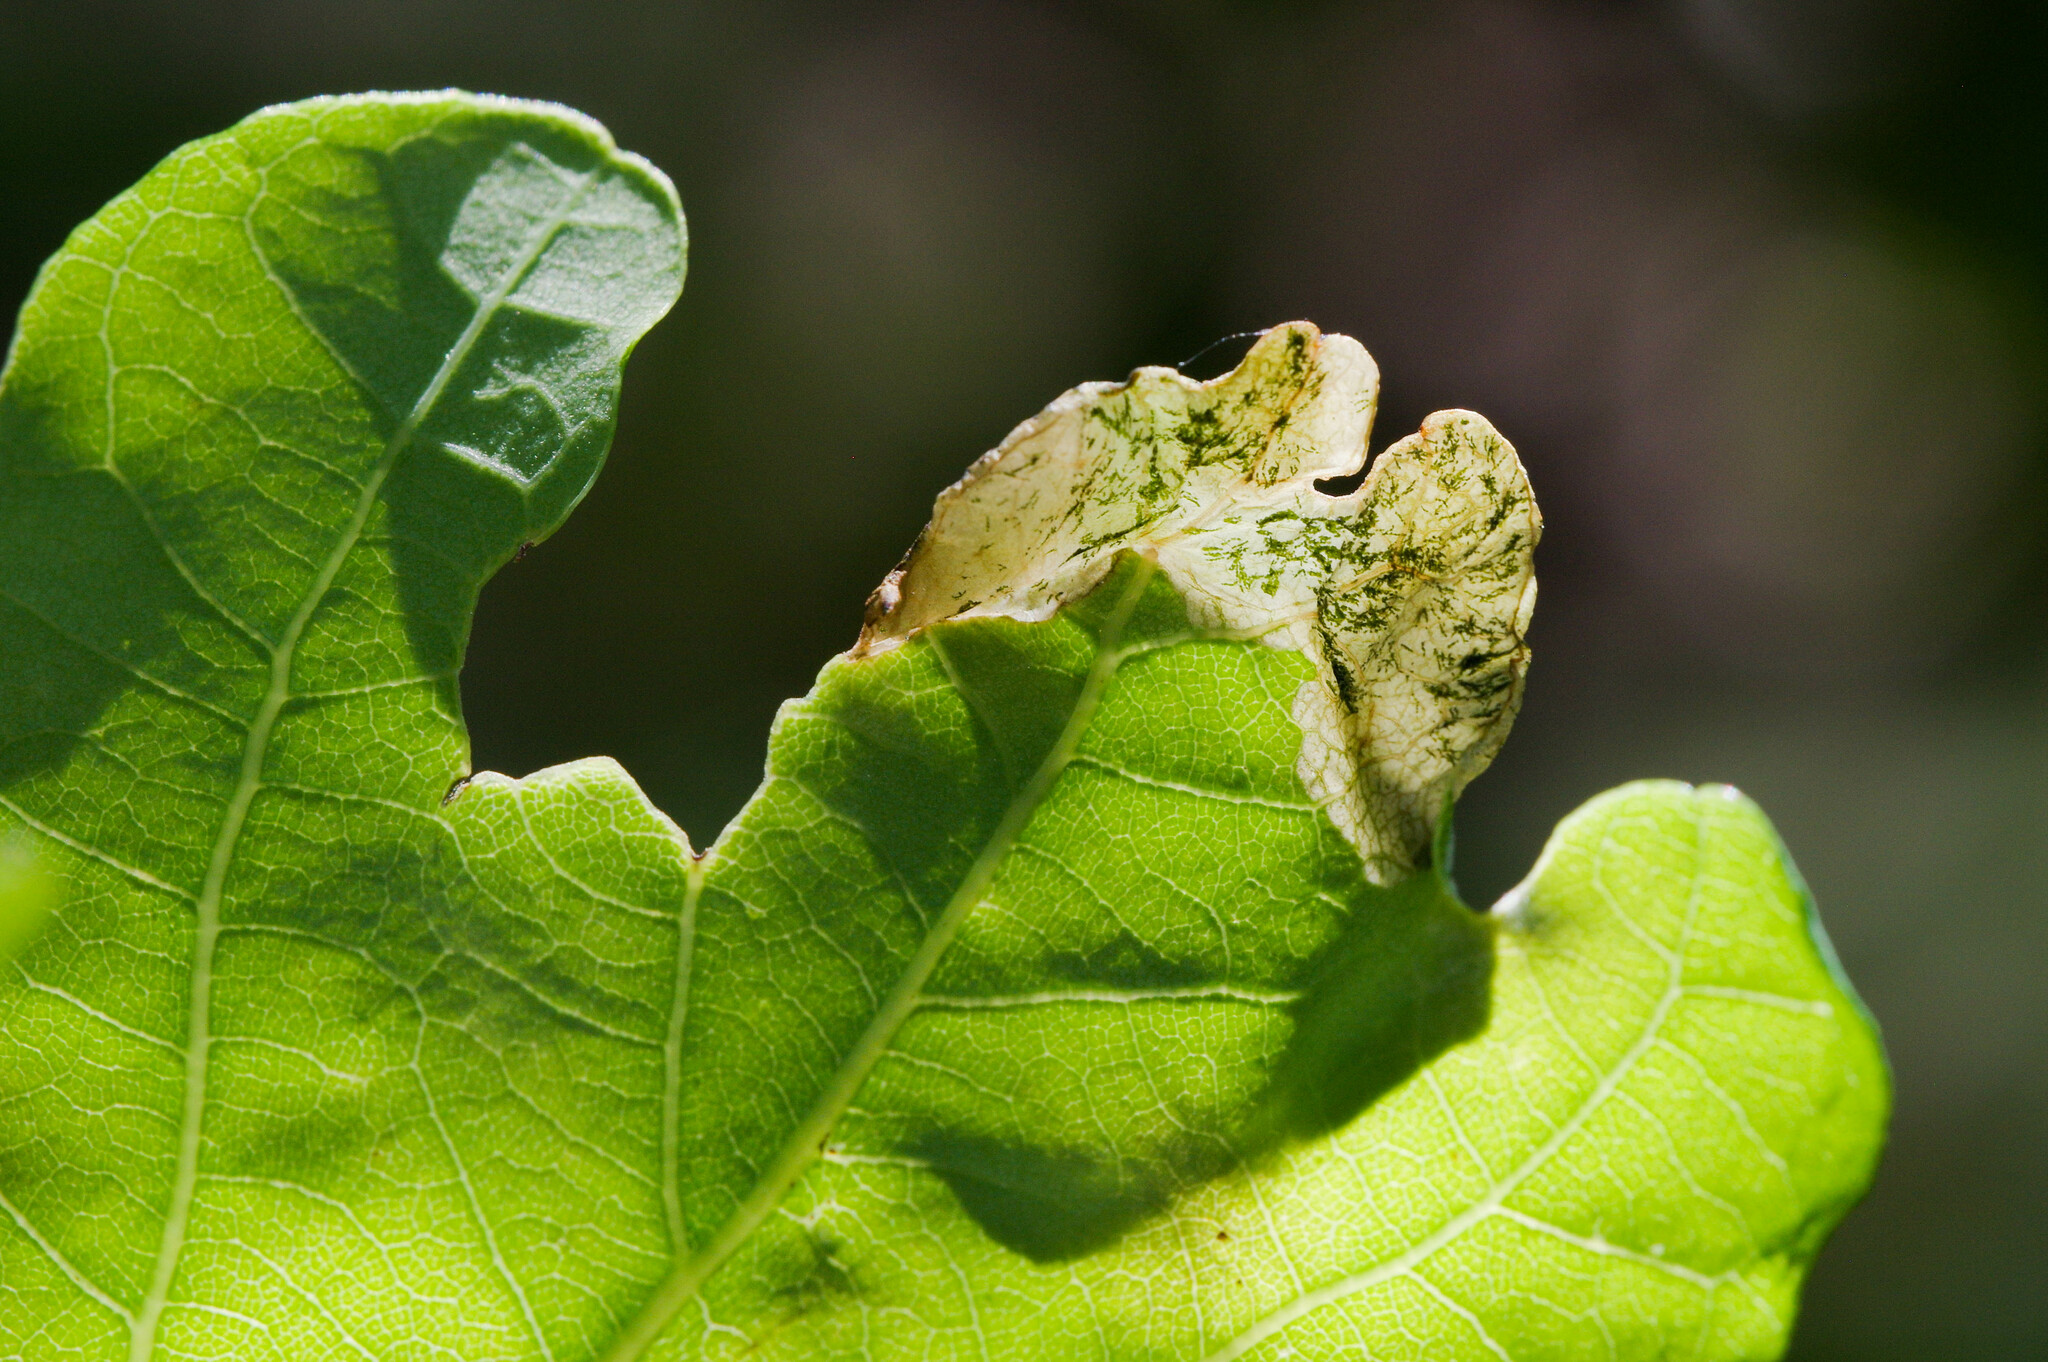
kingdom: Animalia
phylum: Arthropoda
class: Insecta
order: Lepidoptera
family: Eriocraniidae
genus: Dyseriocrania
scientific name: Dyseriocrania subpurpurella
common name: Common oak purple
